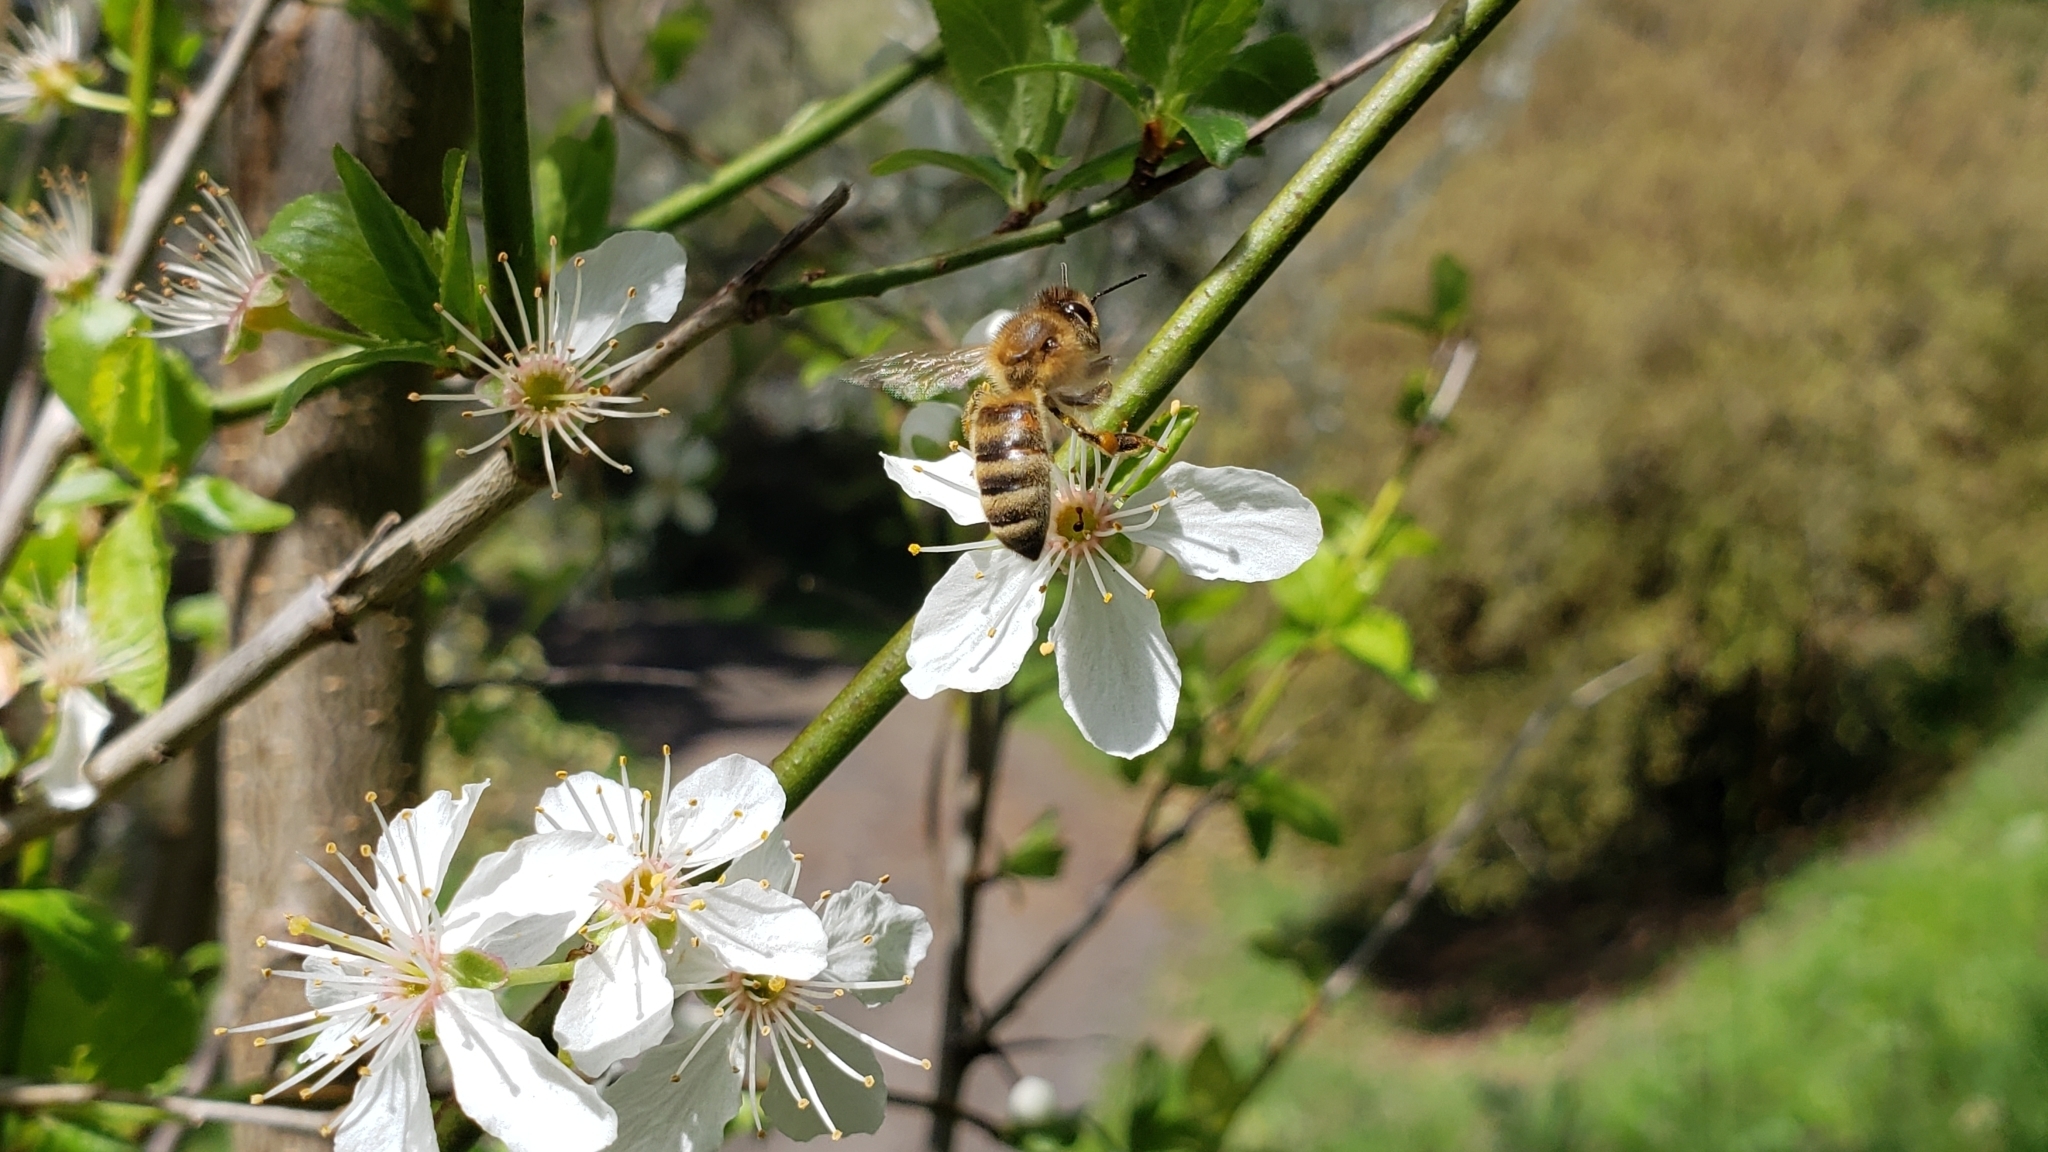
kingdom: Animalia
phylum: Arthropoda
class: Insecta
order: Hymenoptera
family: Apidae
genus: Apis
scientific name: Apis mellifera
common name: Honey bee
